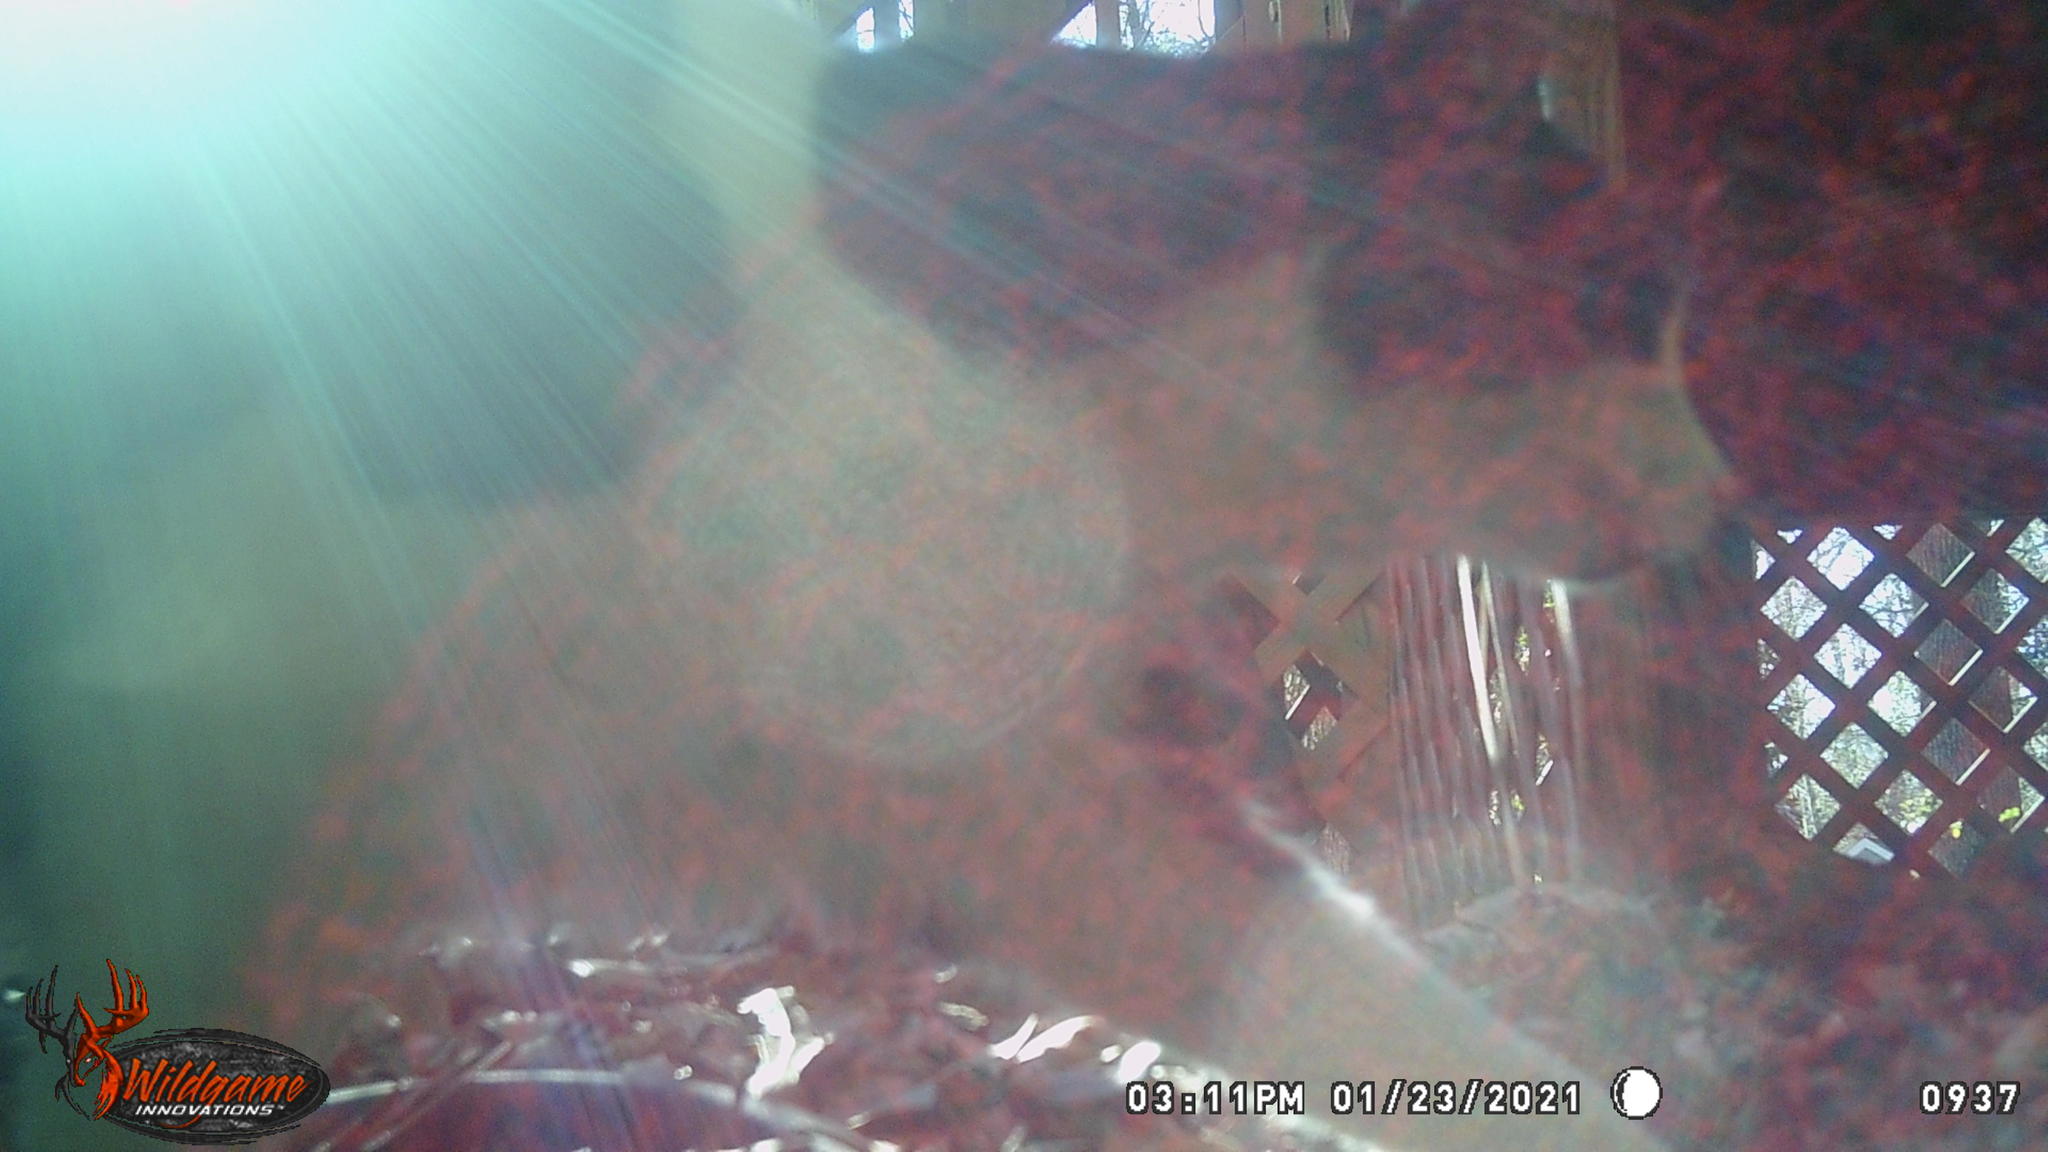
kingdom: Animalia
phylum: Chordata
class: Mammalia
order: Carnivora
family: Felidae
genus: Felis
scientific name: Felis catus
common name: Domestic cat
